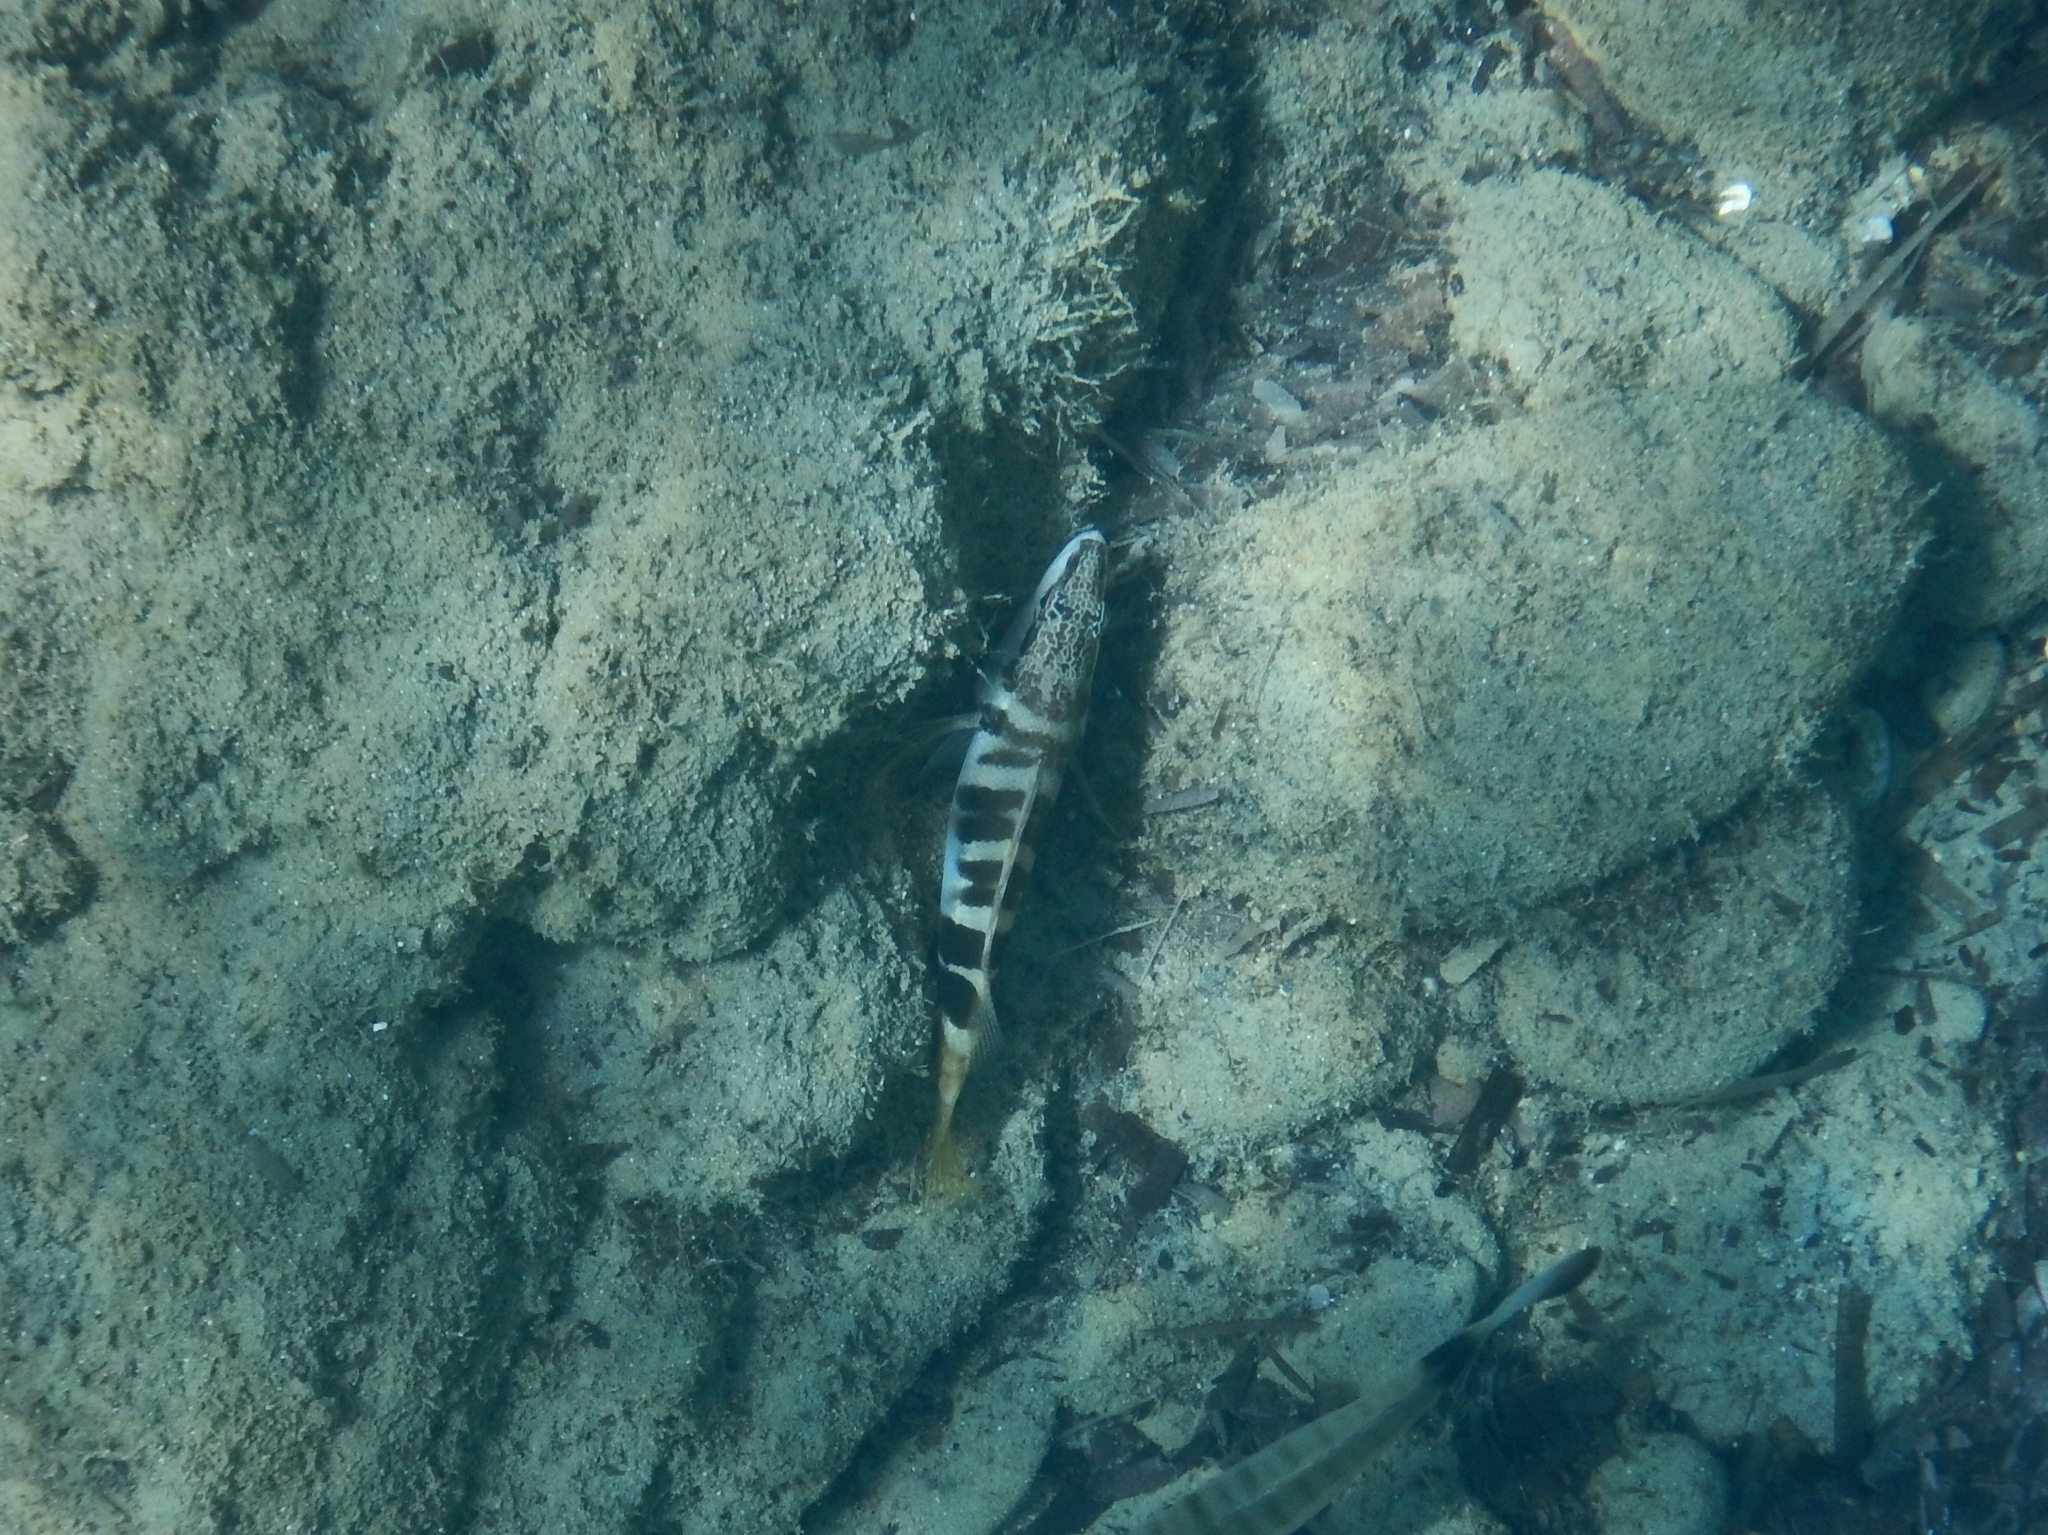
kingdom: Animalia
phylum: Chordata
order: Perciformes
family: Serranidae
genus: Serranus
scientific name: Serranus scriba
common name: Painted comber
